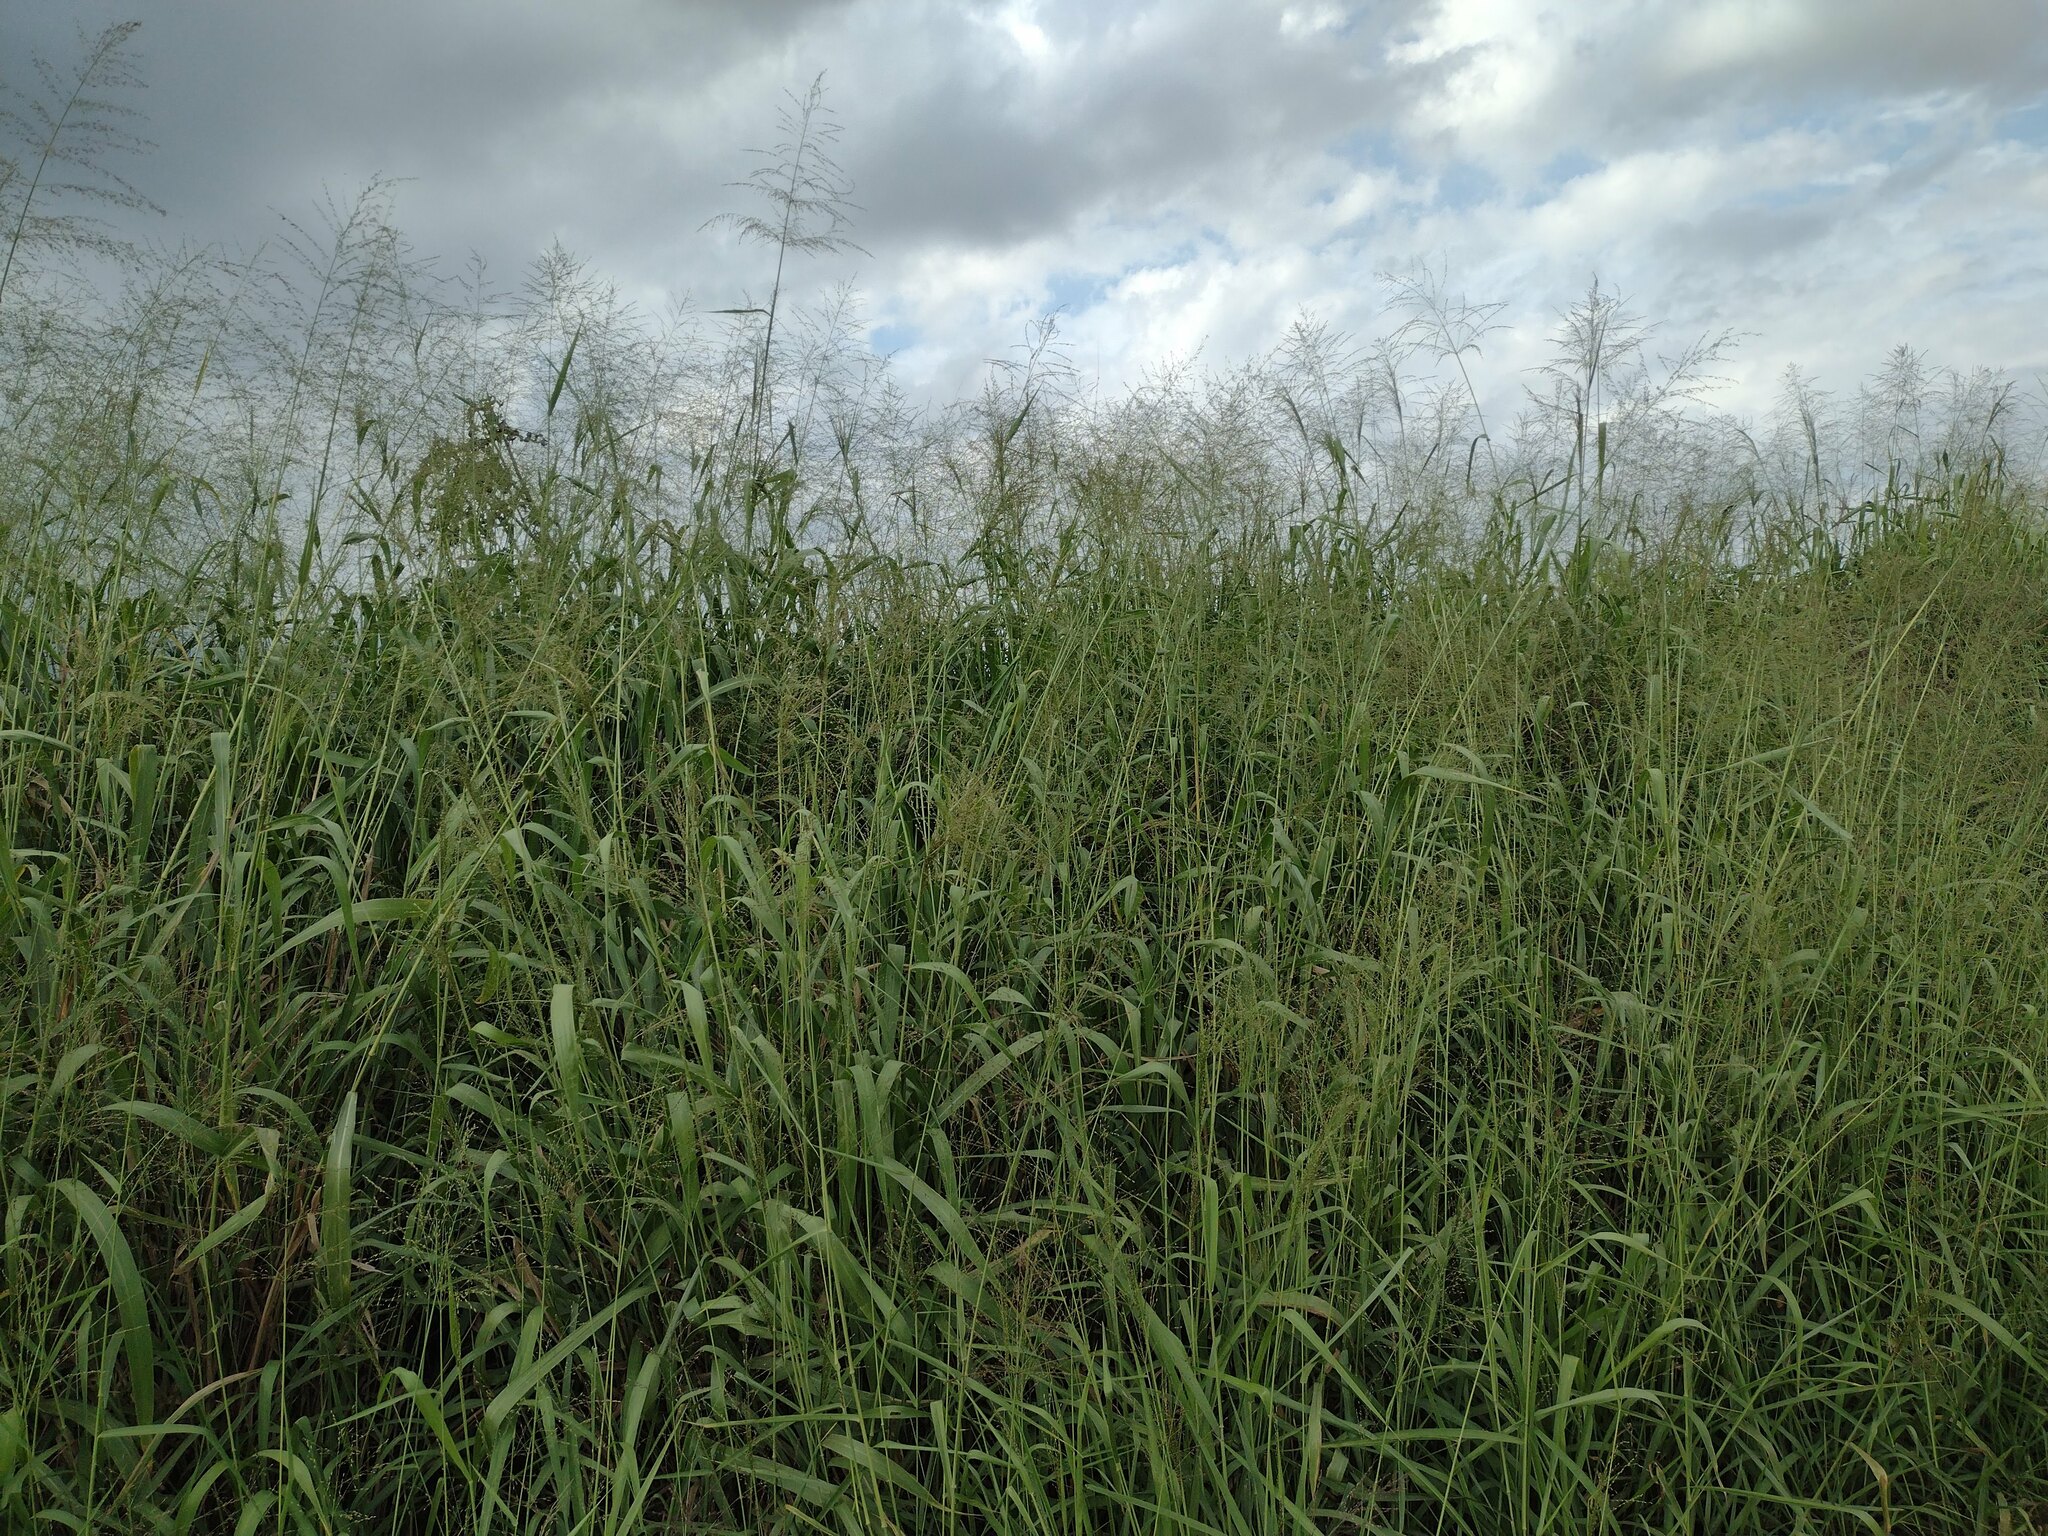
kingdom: Plantae
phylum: Tracheophyta
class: Liliopsida
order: Poales
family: Poaceae
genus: Megathyrsus
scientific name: Megathyrsus maximus
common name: Guineagrass
